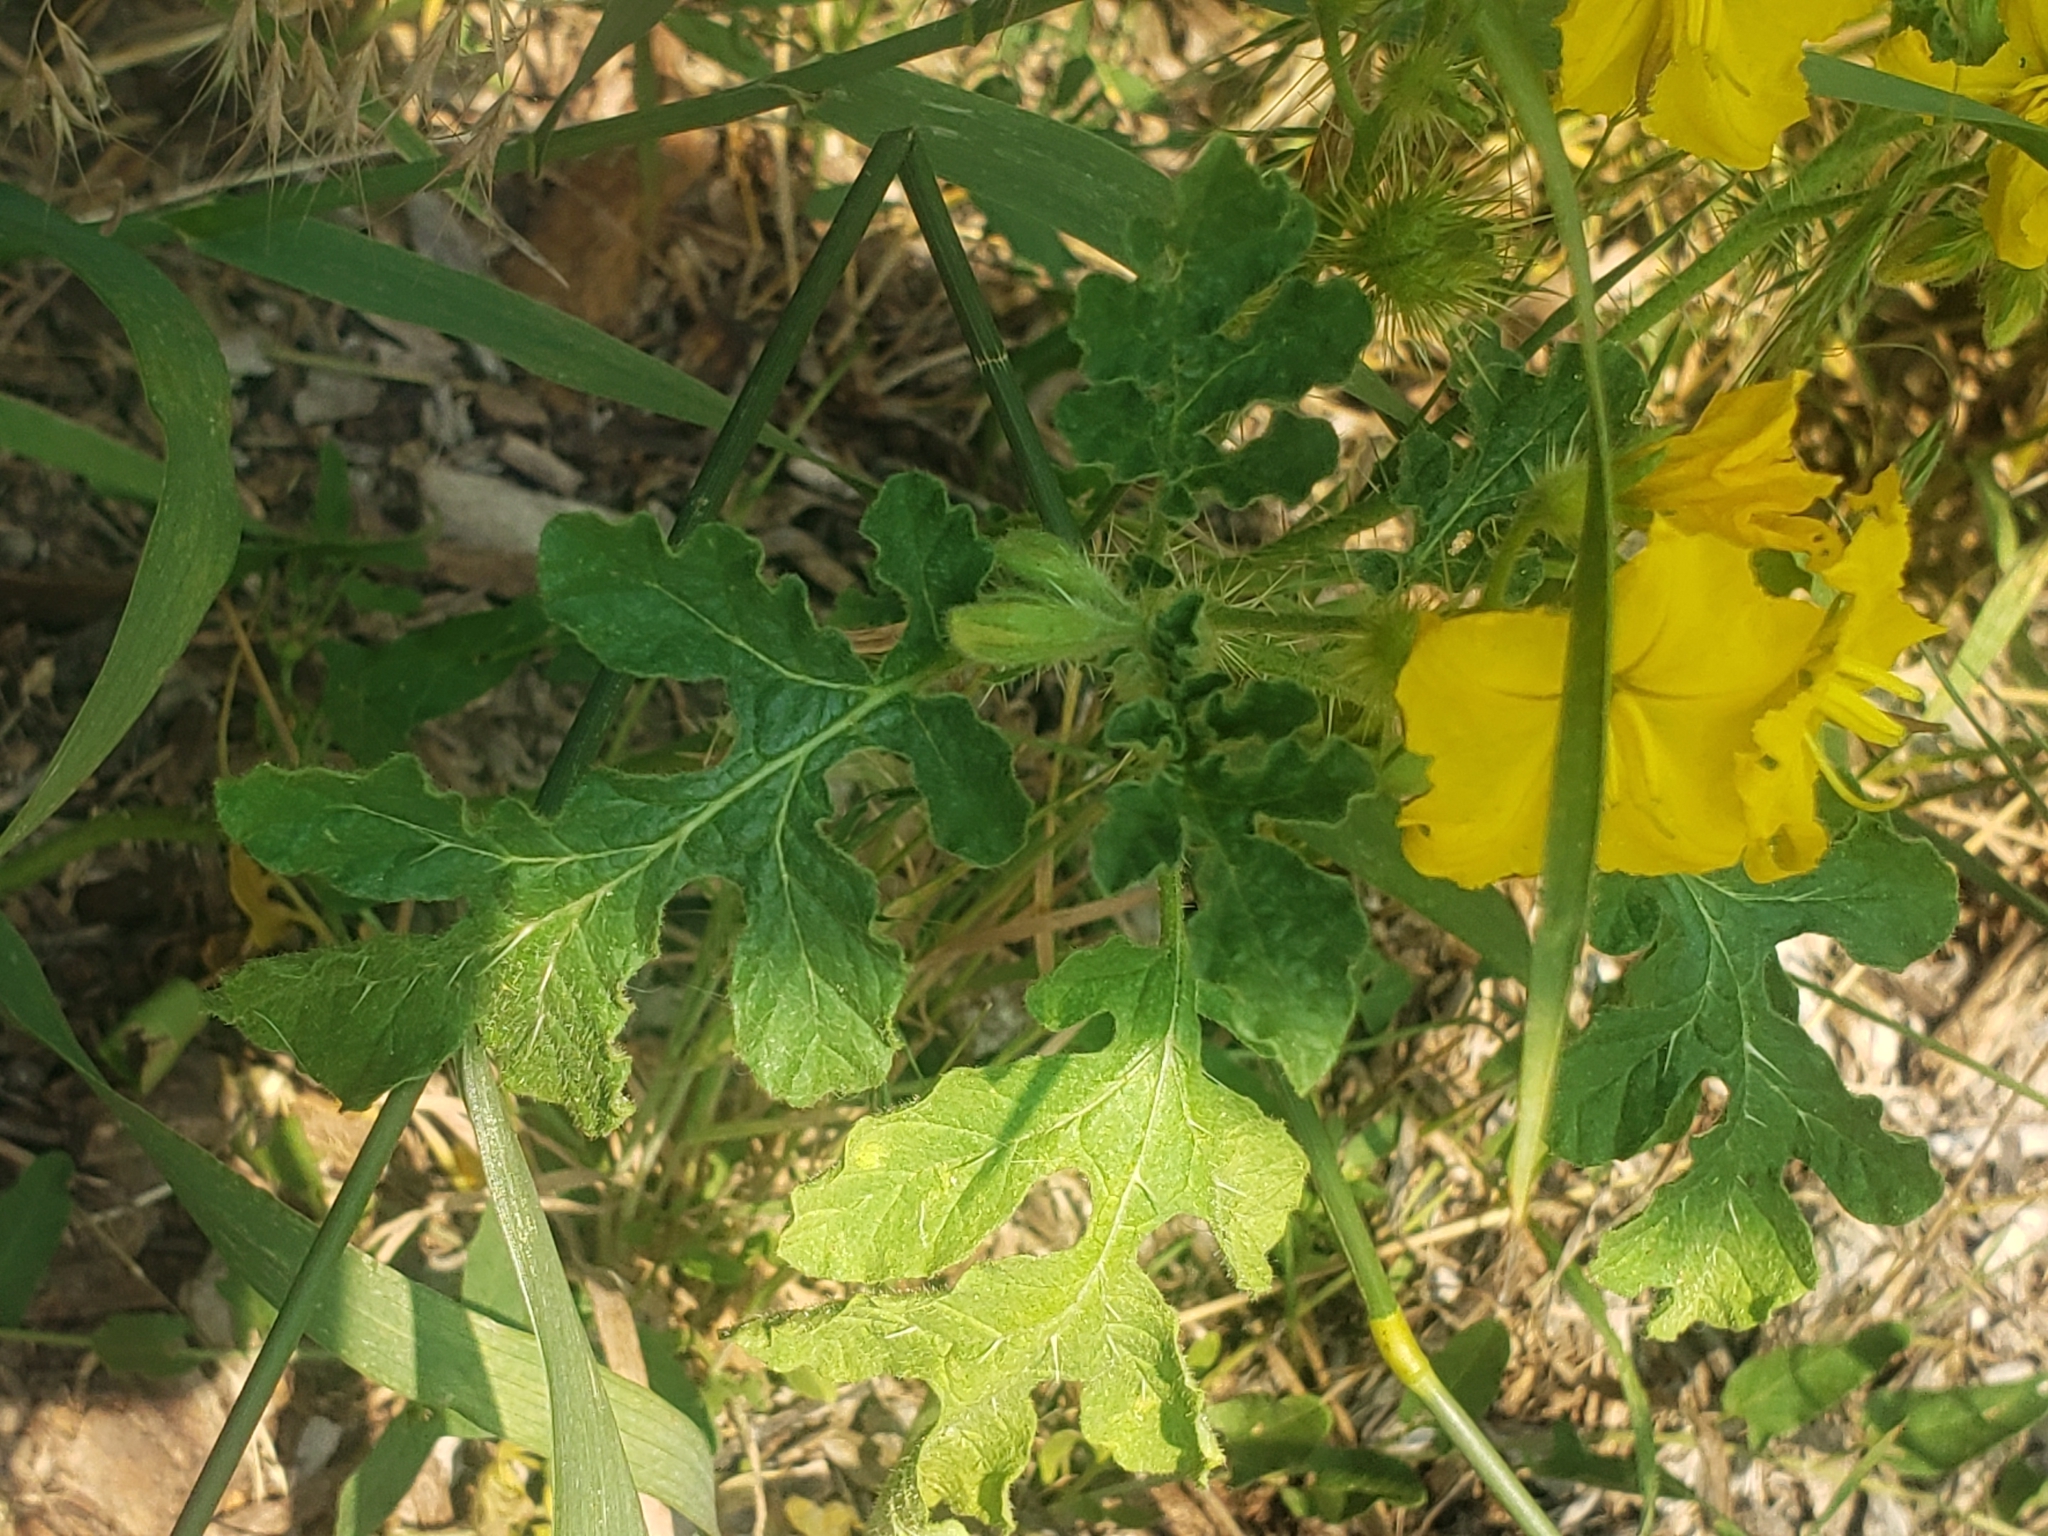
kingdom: Plantae
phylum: Tracheophyta
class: Magnoliopsida
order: Solanales
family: Solanaceae
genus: Solanum
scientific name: Solanum angustifolium
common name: Buffalobur nightshade
